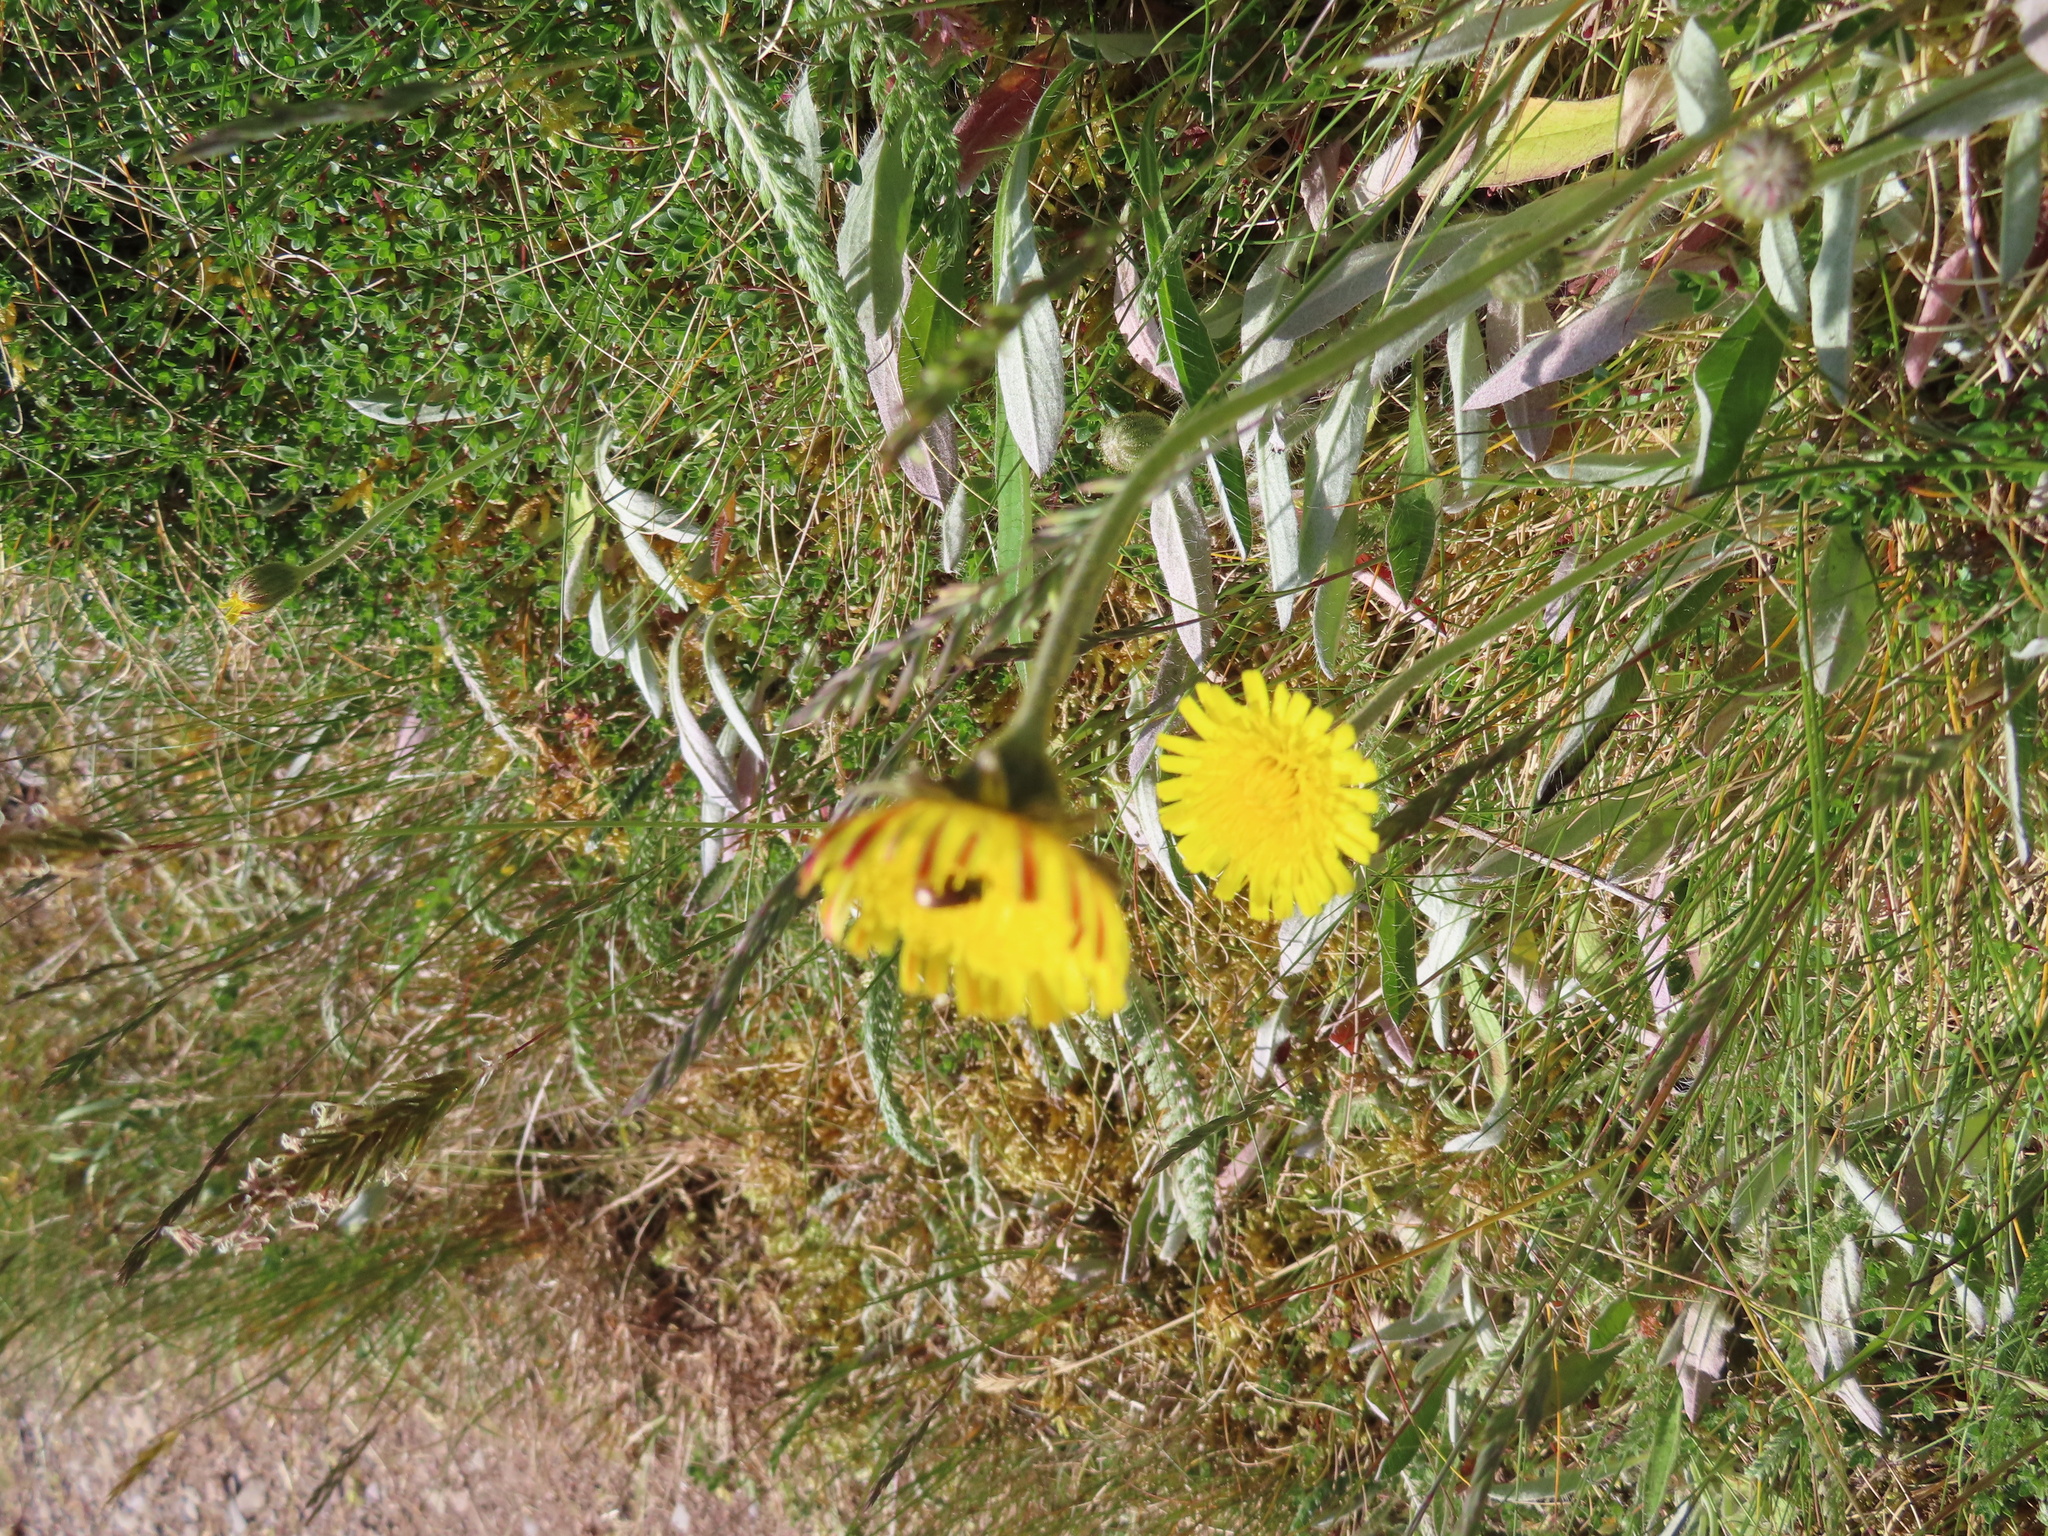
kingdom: Plantae
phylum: Tracheophyta
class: Magnoliopsida
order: Asterales
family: Asteraceae
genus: Pilosella
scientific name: Pilosella officinarum
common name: Mouse-ear hawkweed
